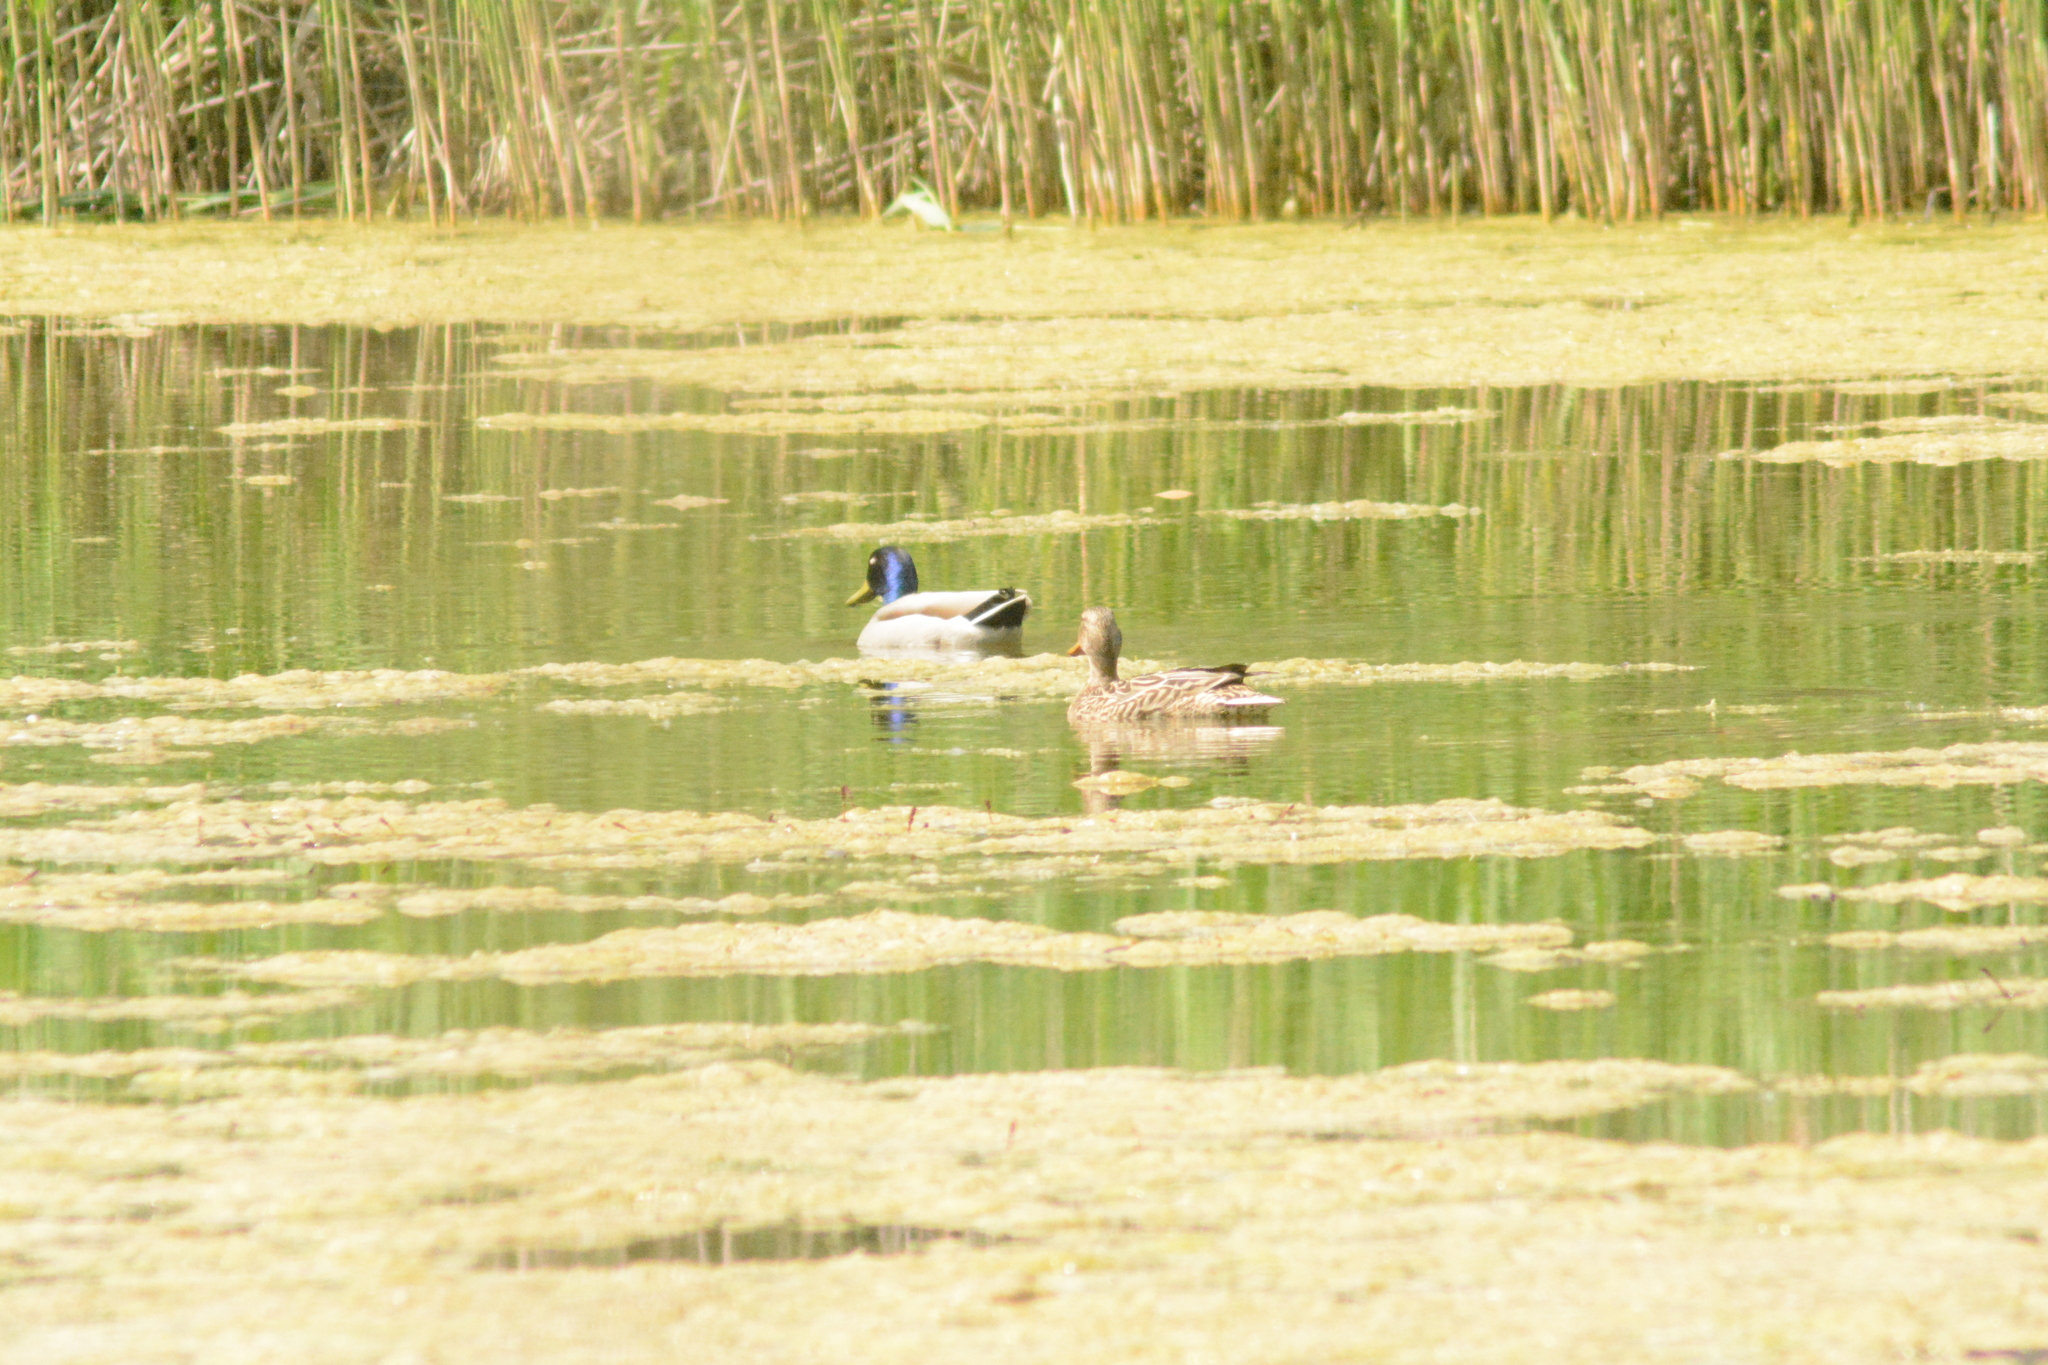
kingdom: Animalia
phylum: Chordata
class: Aves
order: Anseriformes
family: Anatidae
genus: Anas
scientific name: Anas platyrhynchos
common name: Mallard
